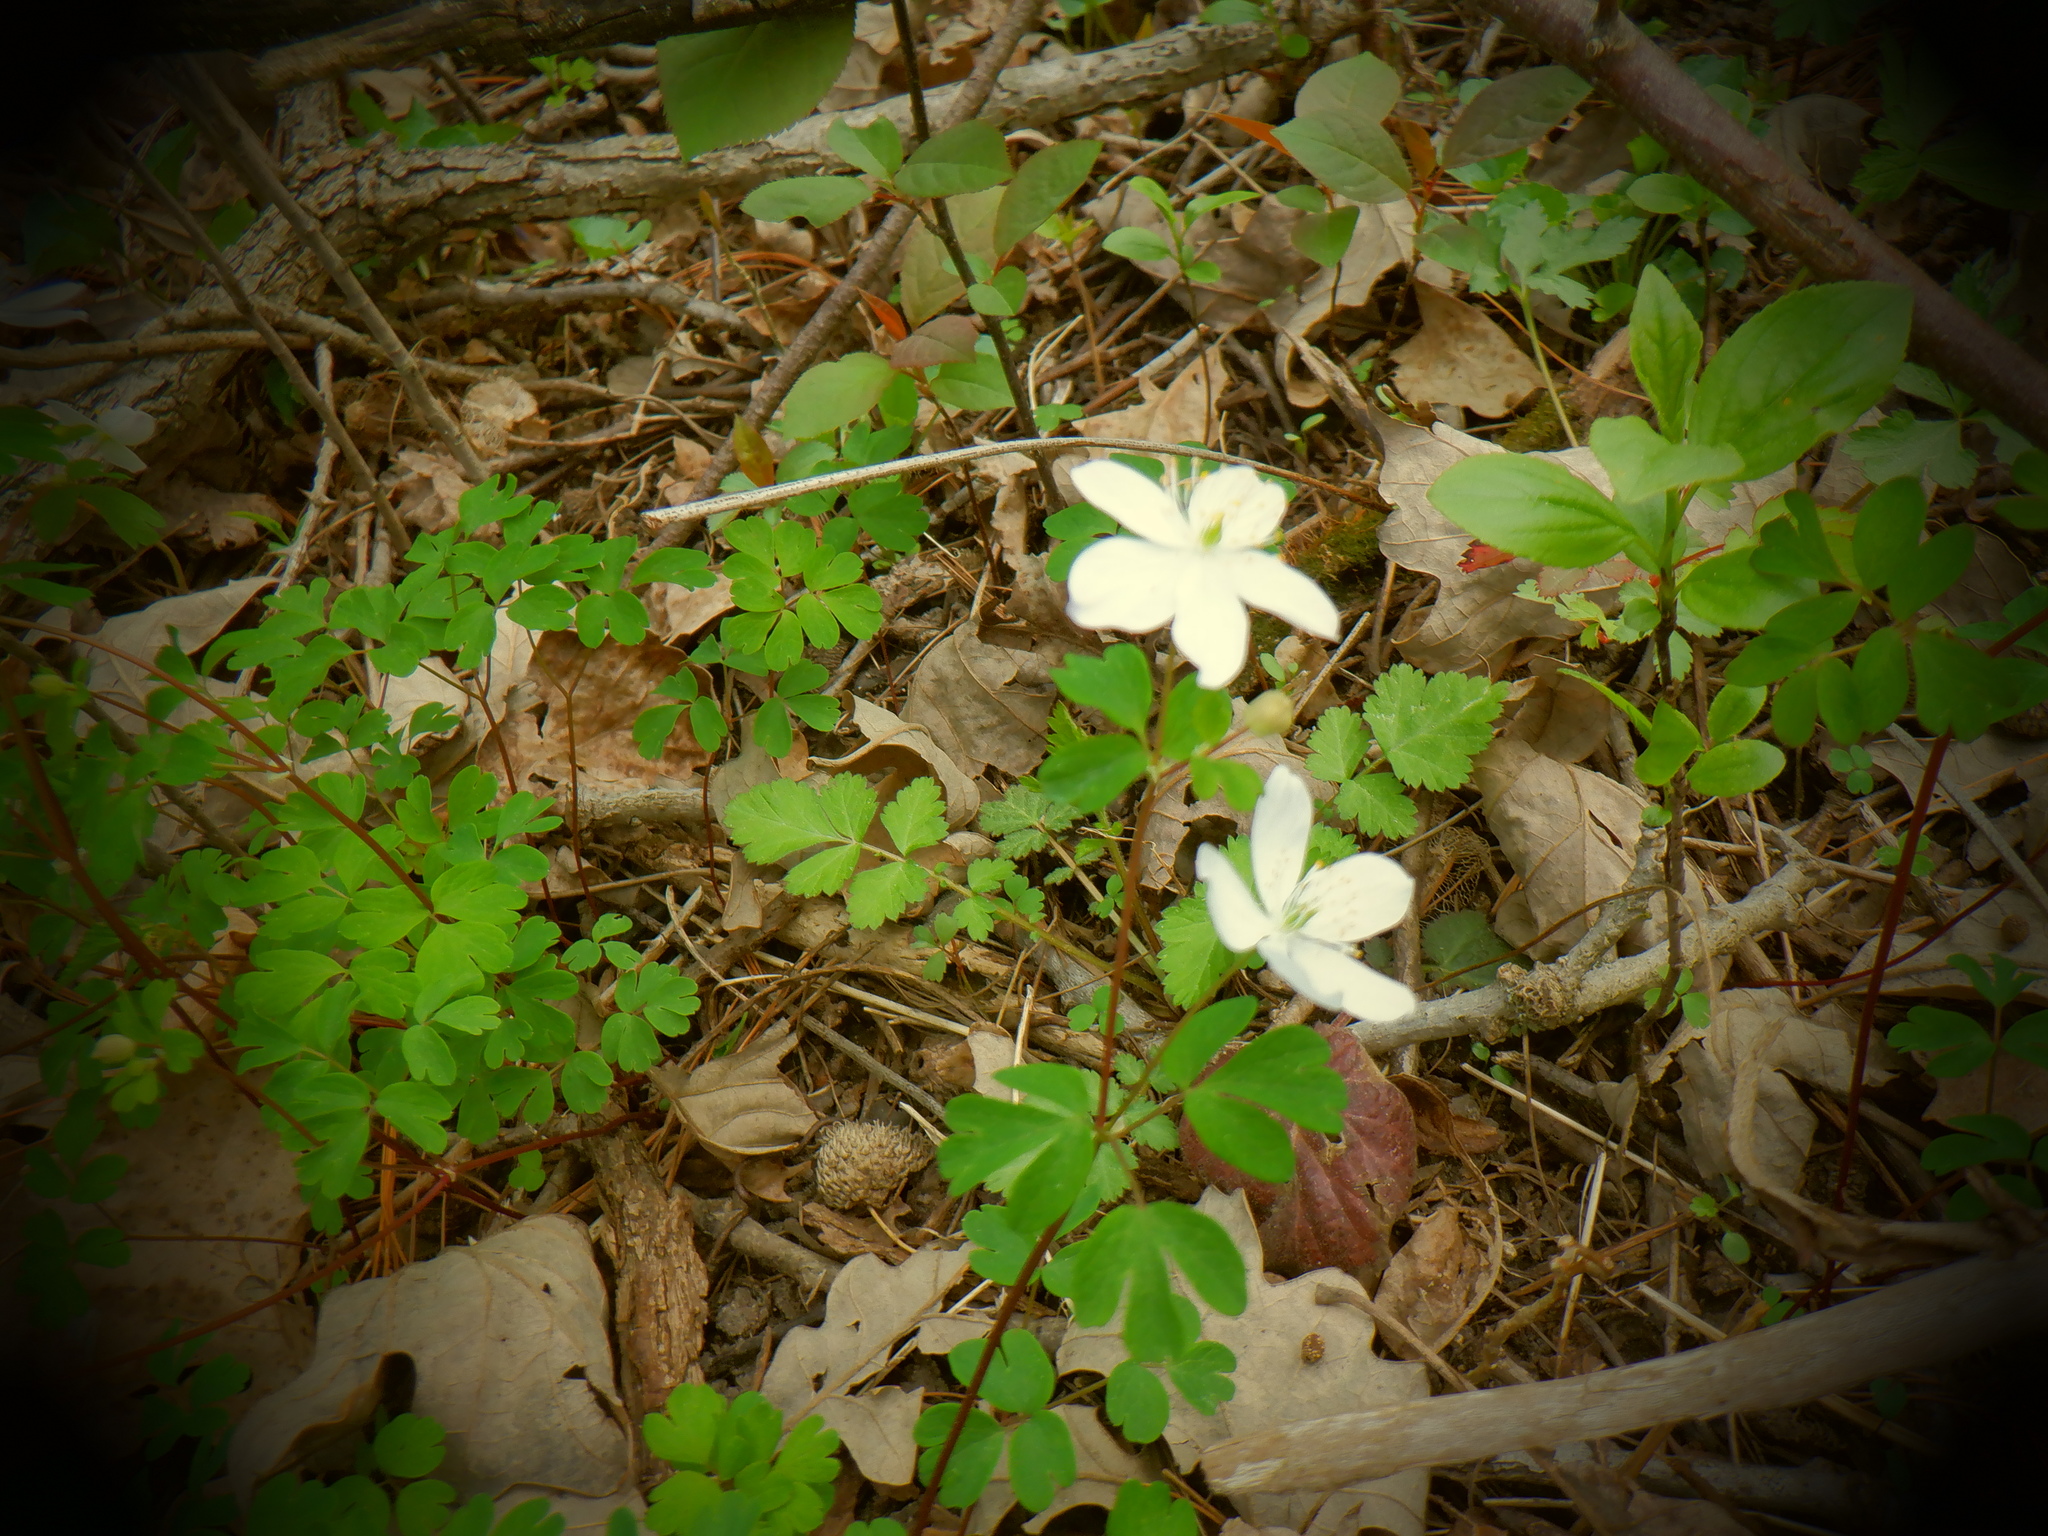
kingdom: Plantae
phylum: Tracheophyta
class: Magnoliopsida
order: Ranunculales
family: Ranunculaceae
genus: Enemion
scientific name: Enemion biternatum
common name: Eastern false rue-anemone
